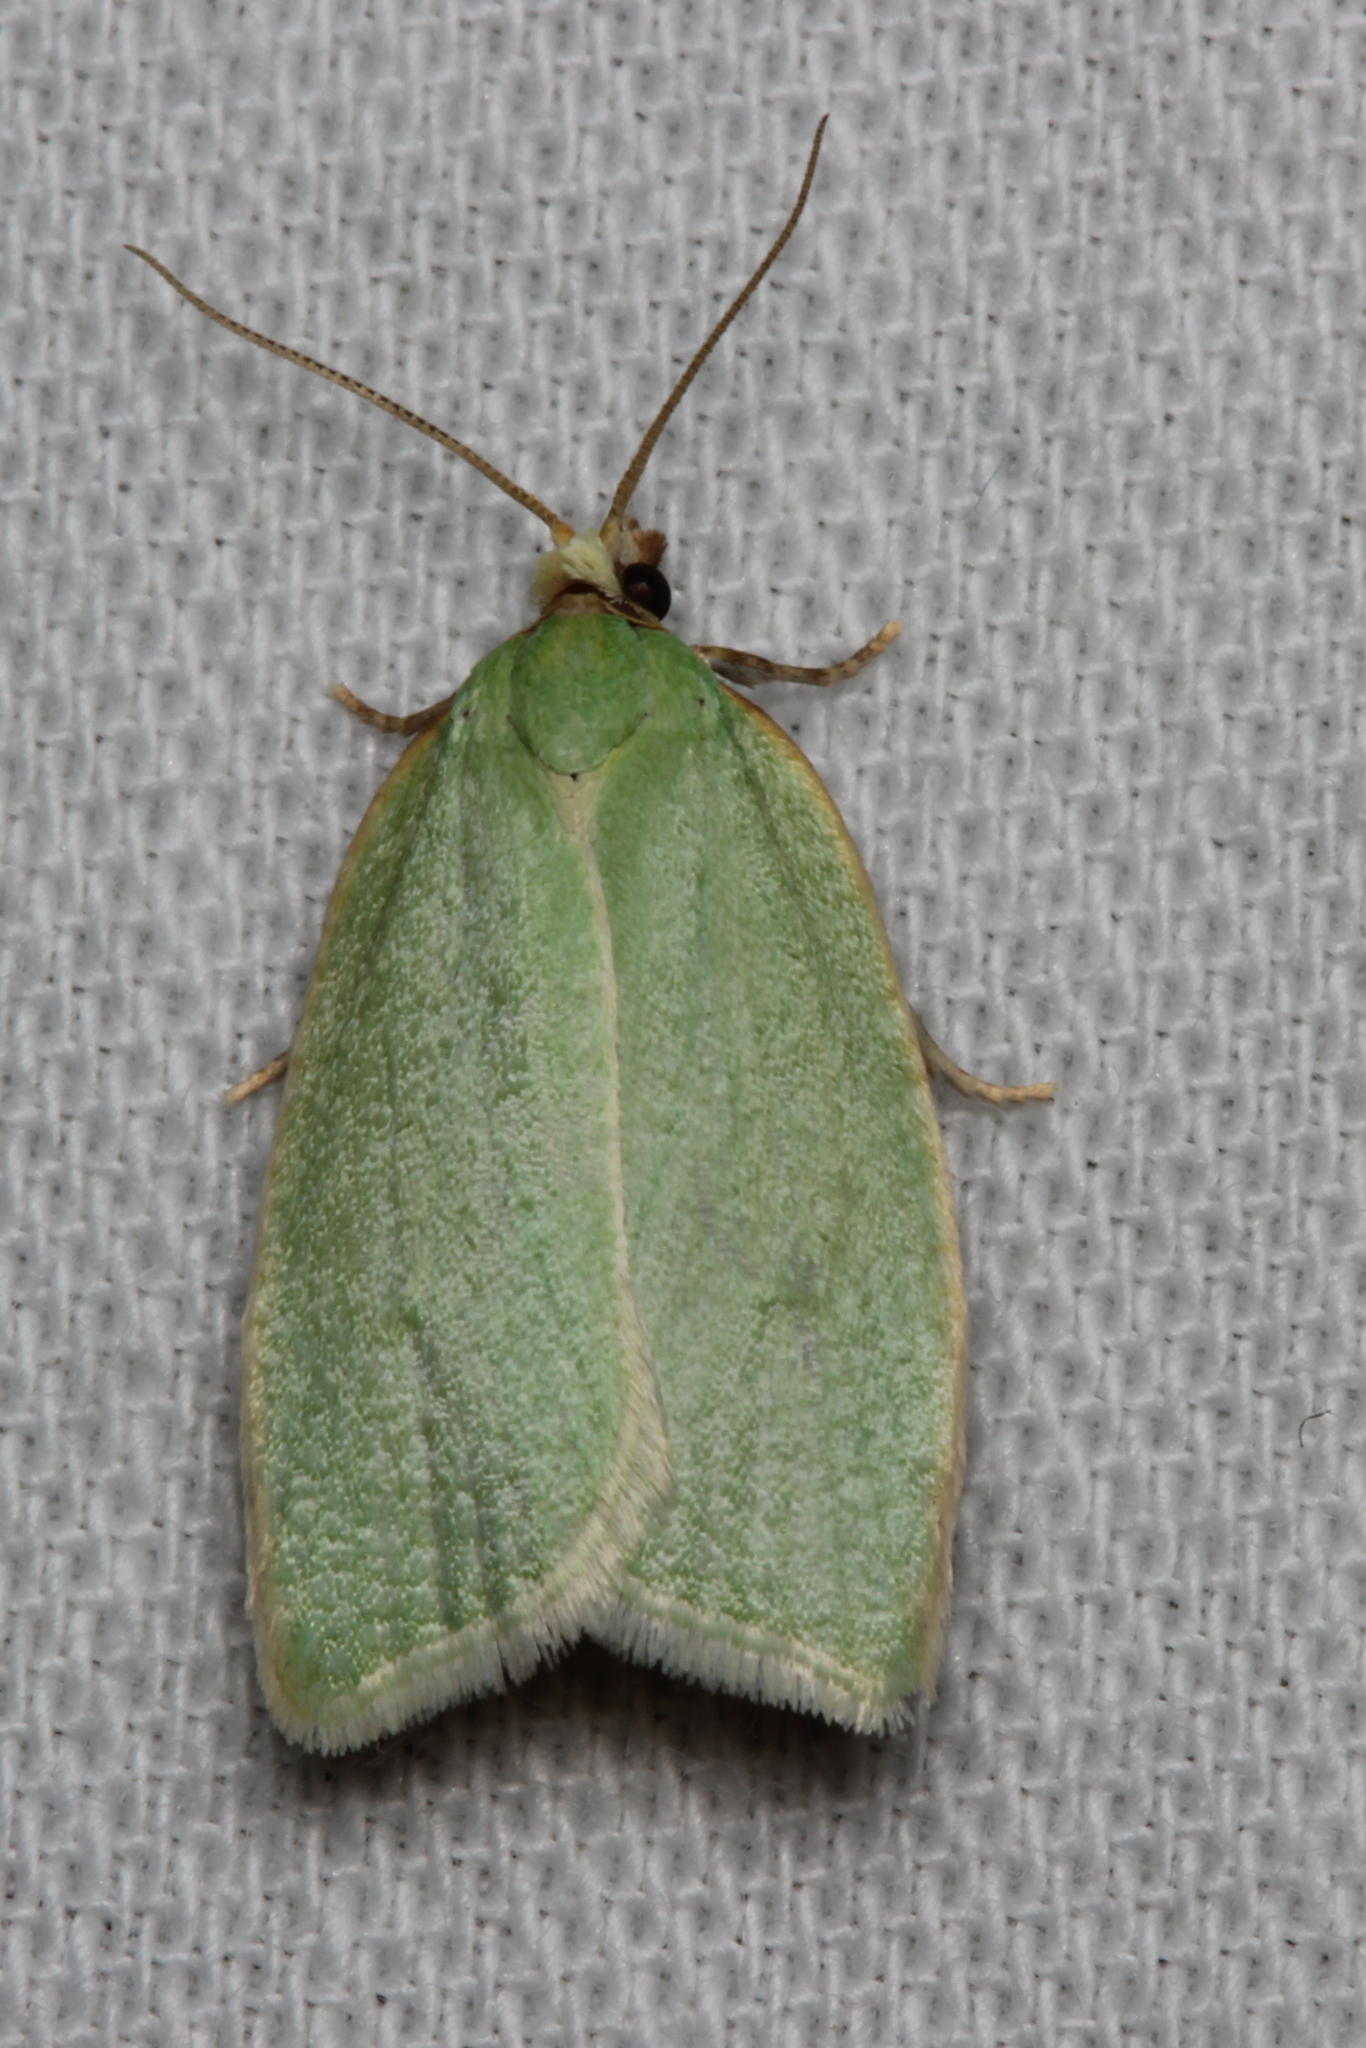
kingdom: Animalia
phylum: Arthropoda
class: Insecta
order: Lepidoptera
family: Tortricidae
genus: Tortrix
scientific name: Tortrix viridana
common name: Green oak tortrix
